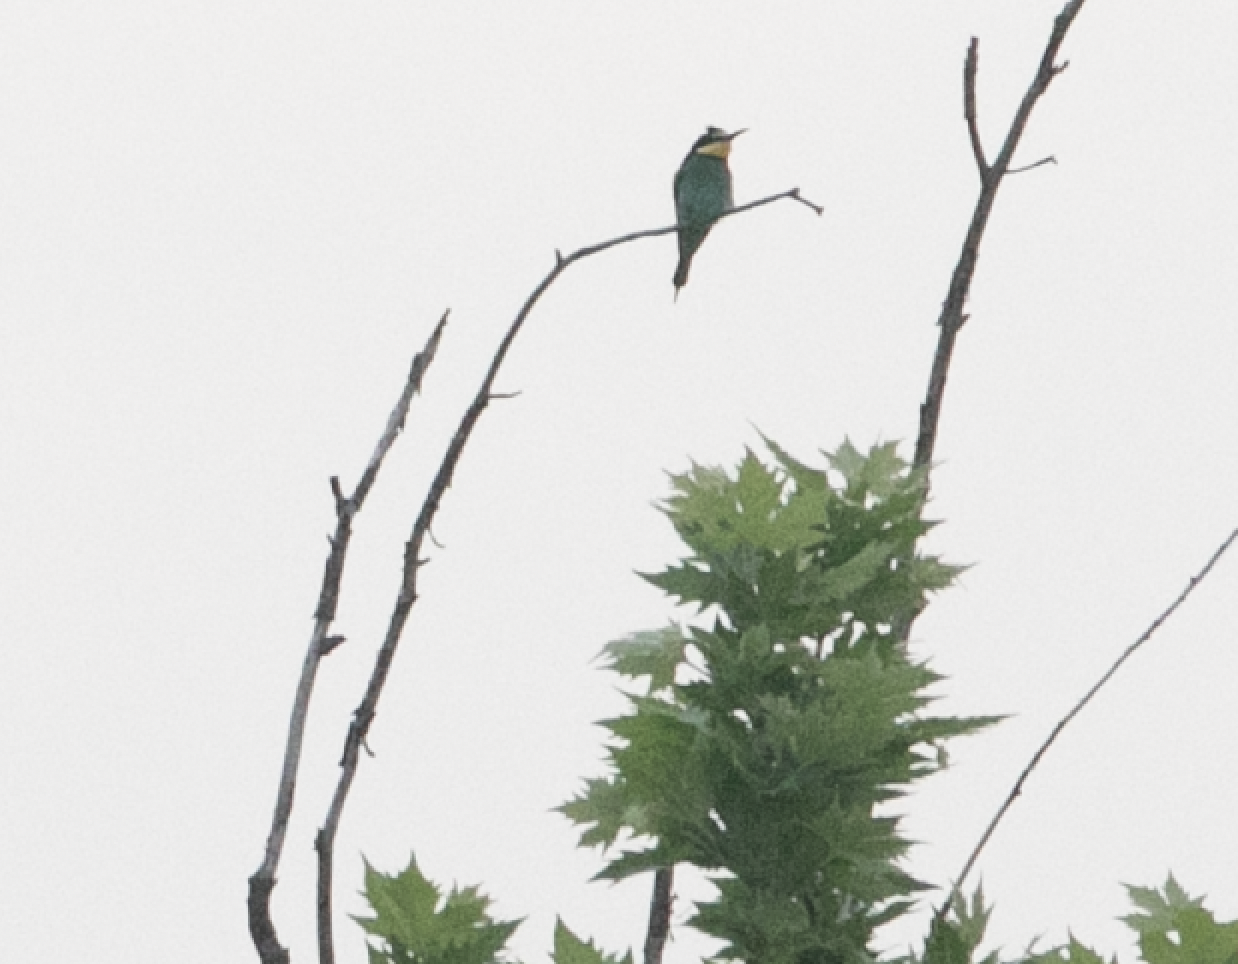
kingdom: Animalia
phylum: Chordata
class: Aves
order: Coraciiformes
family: Meropidae
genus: Merops
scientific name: Merops apiaster
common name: European bee-eater
